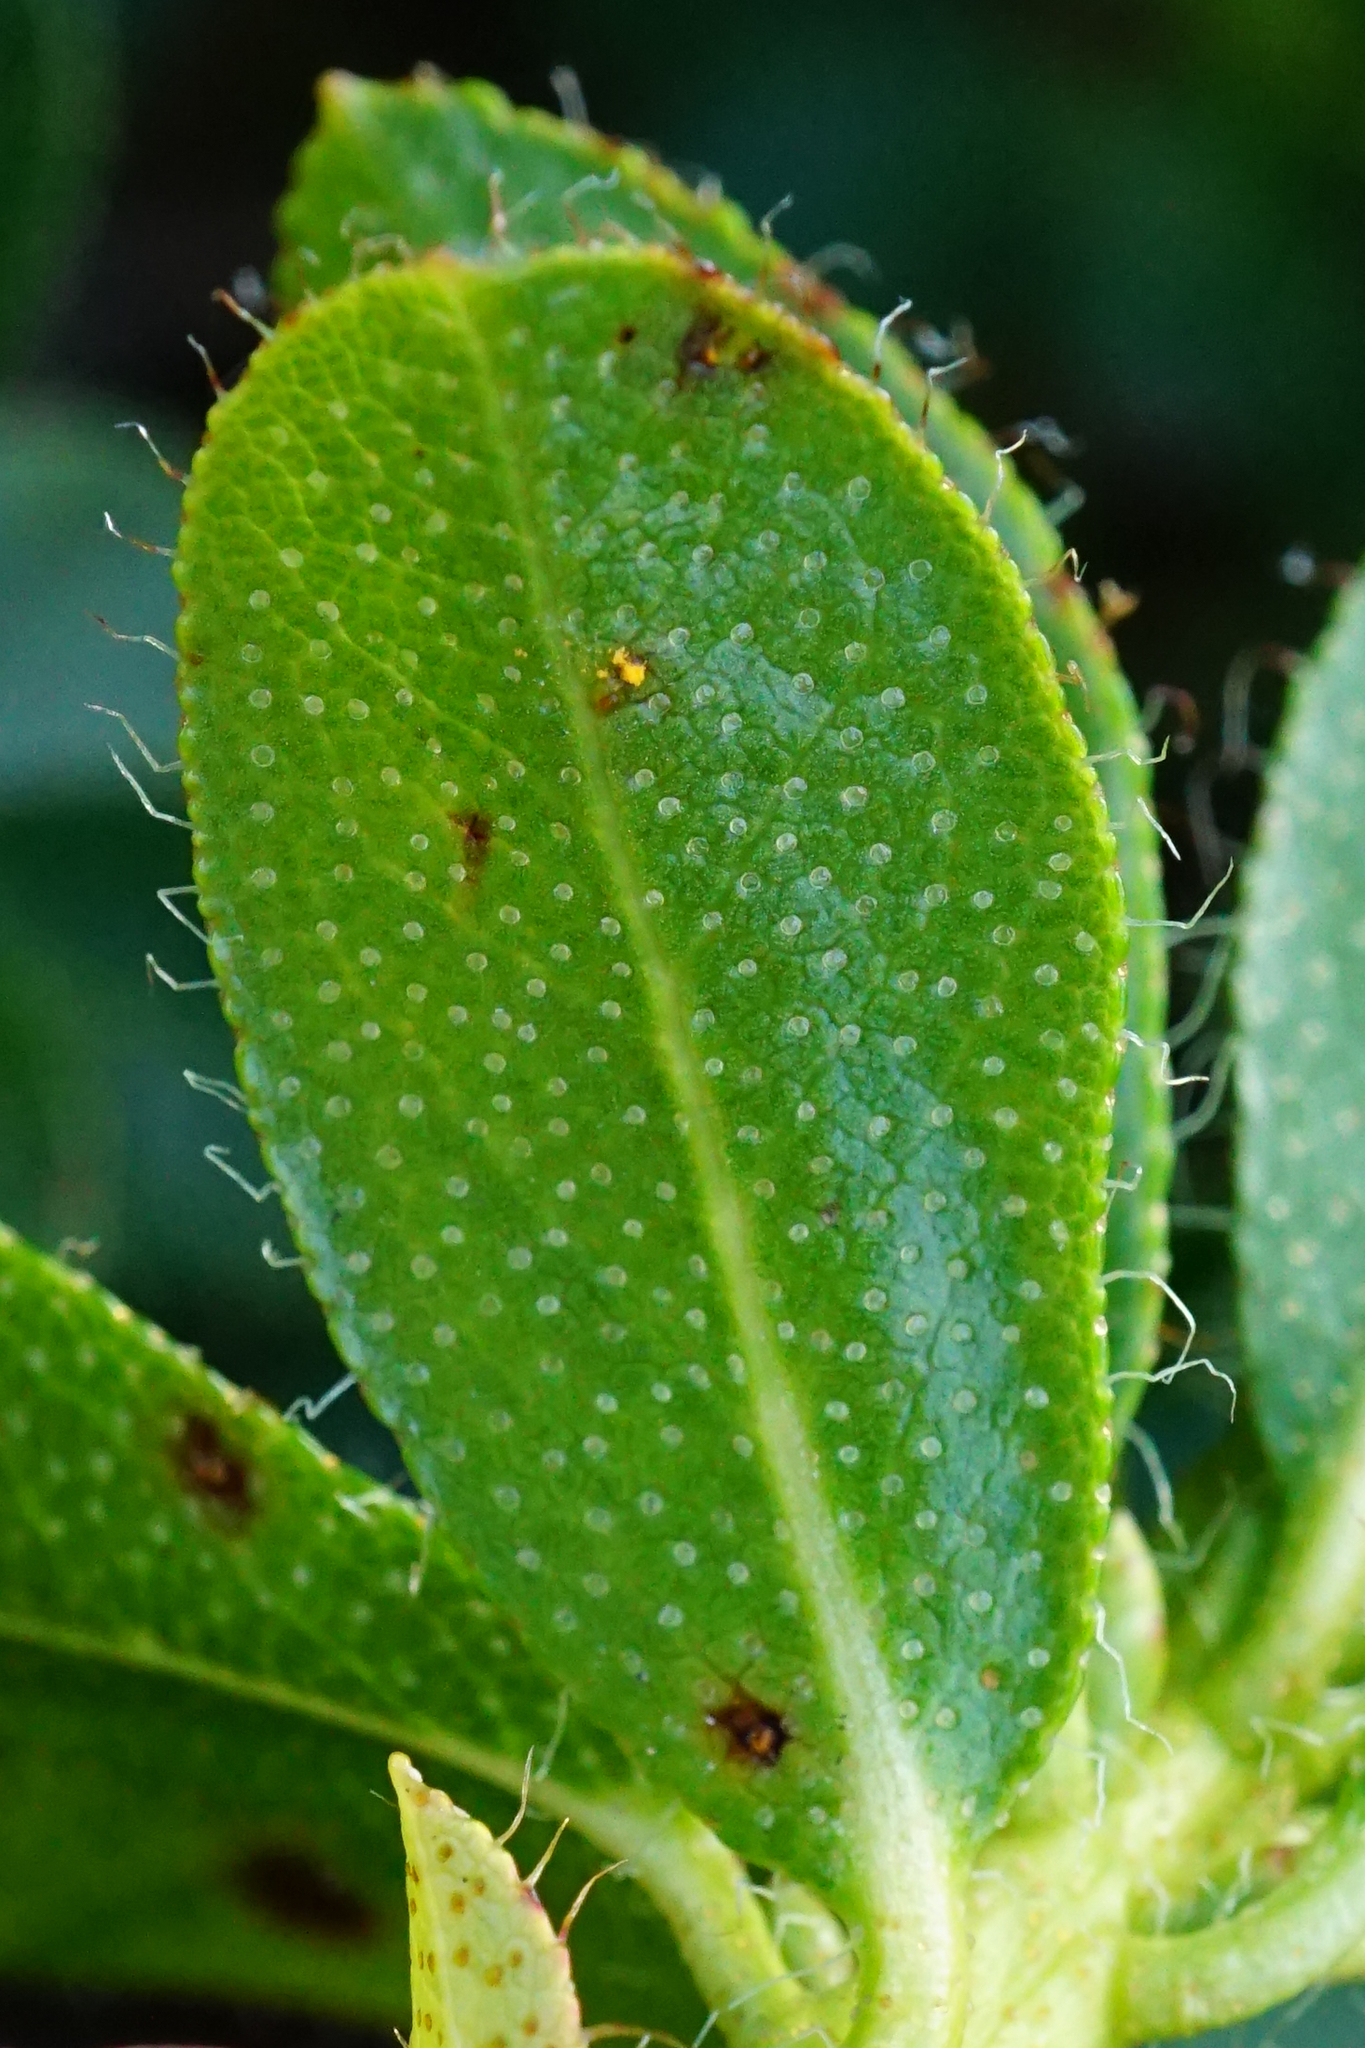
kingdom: Plantae
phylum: Tracheophyta
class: Magnoliopsida
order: Ericales
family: Ericaceae
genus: Rhododendron
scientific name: Rhododendron hirsutum
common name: Hairy alpenrose
